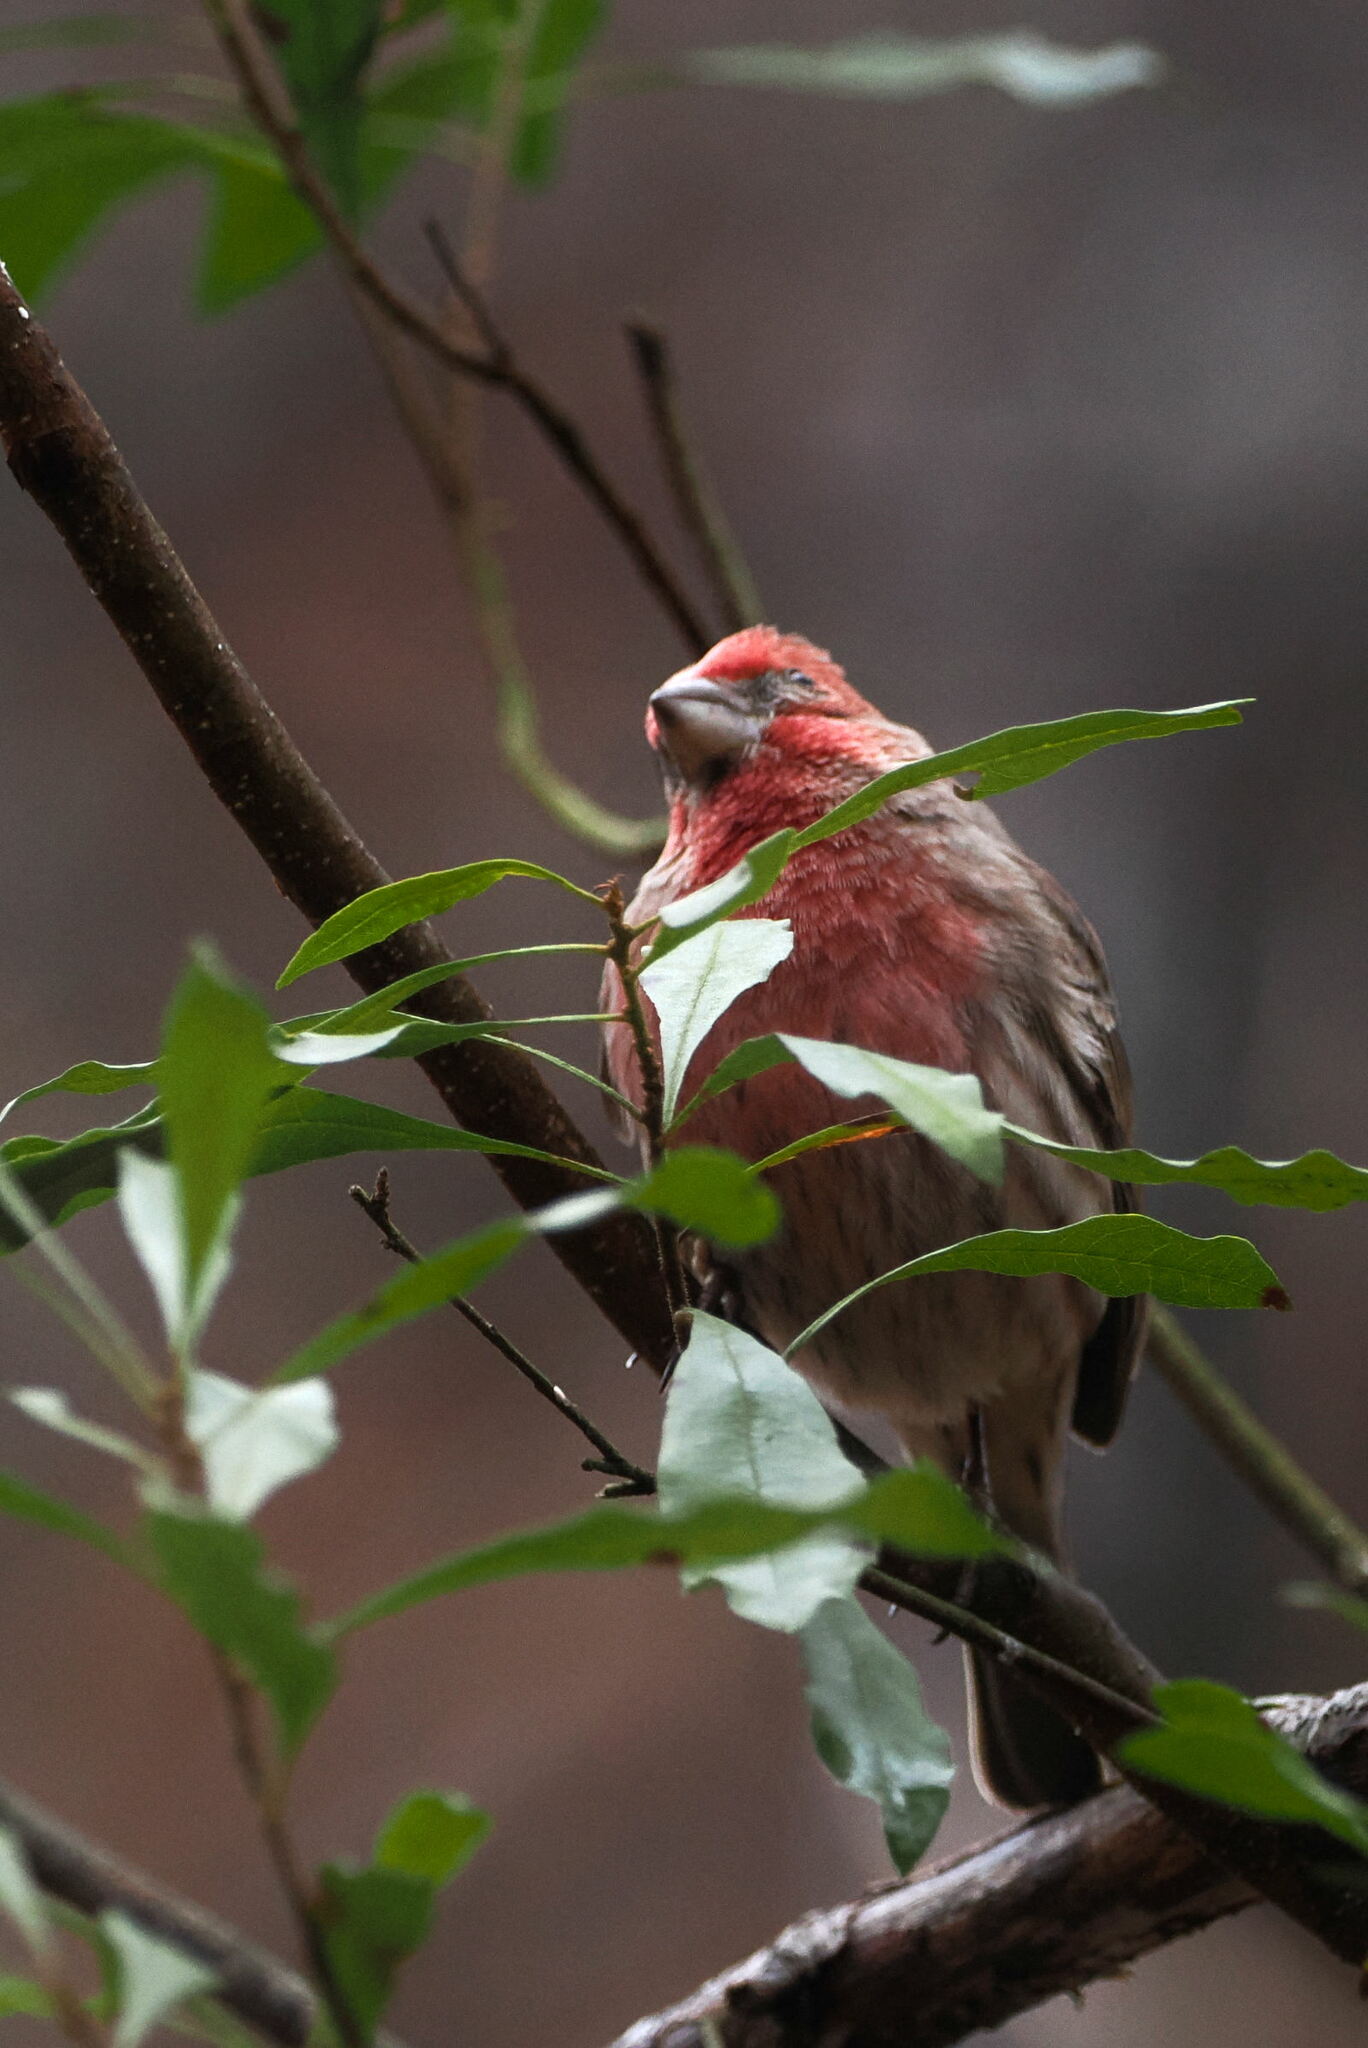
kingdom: Animalia
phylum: Chordata
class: Aves
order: Passeriformes
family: Fringillidae
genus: Haemorhous
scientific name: Haemorhous mexicanus
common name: House finch
